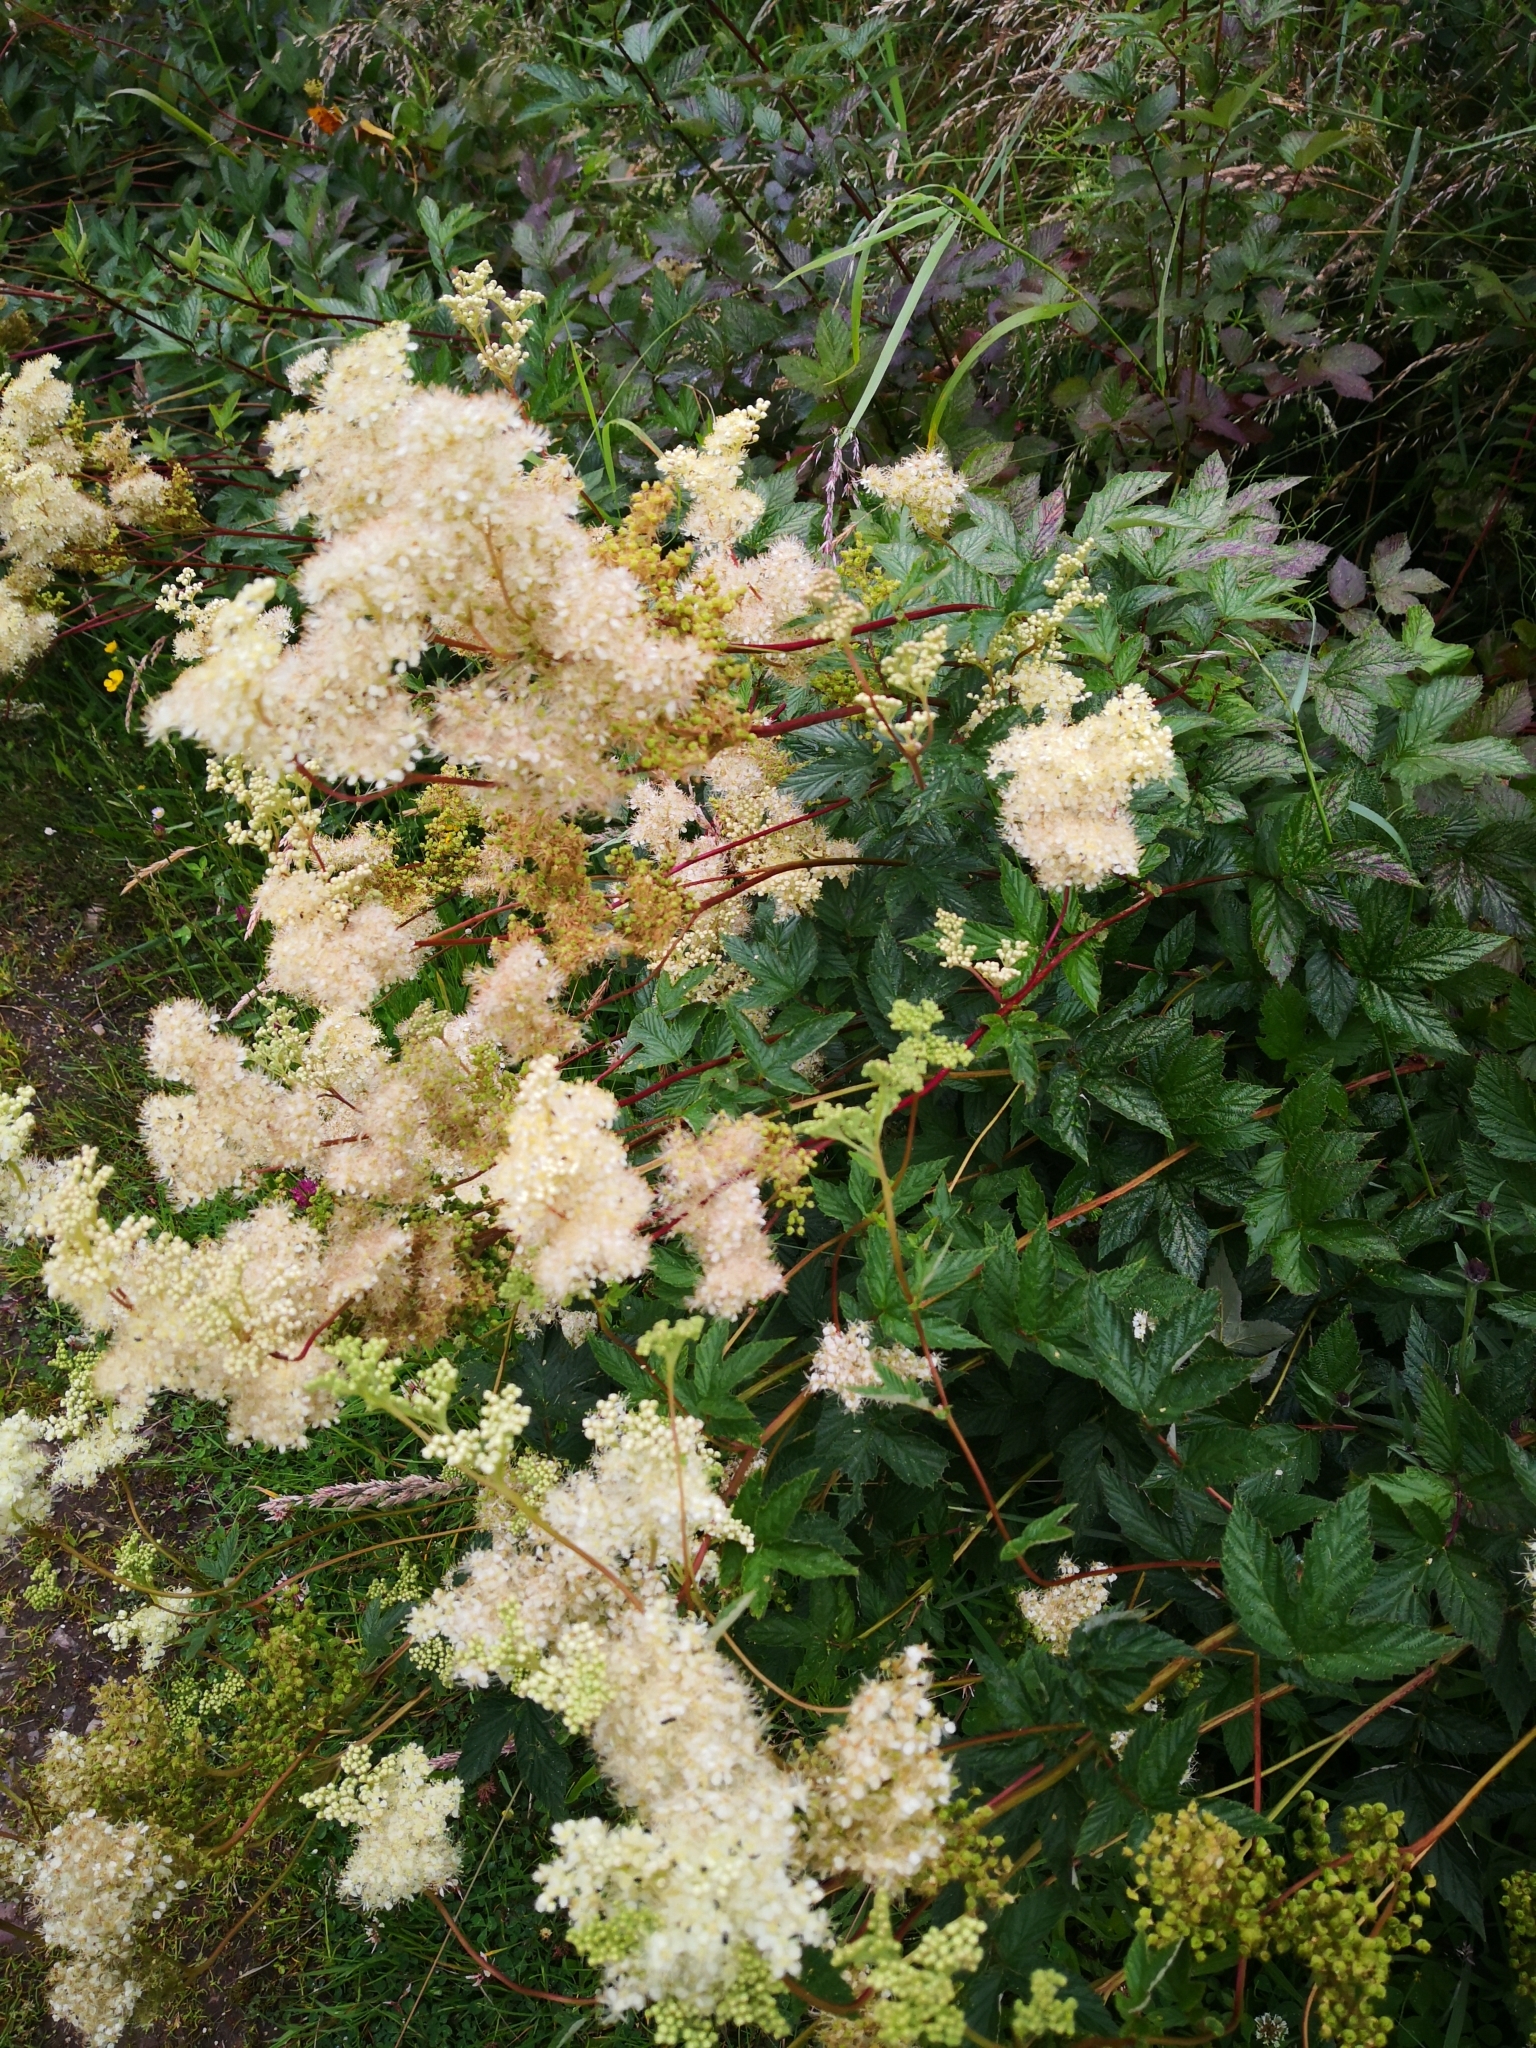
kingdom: Plantae
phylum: Tracheophyta
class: Magnoliopsida
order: Rosales
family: Rosaceae
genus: Filipendula
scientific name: Filipendula ulmaria
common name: Meadowsweet
